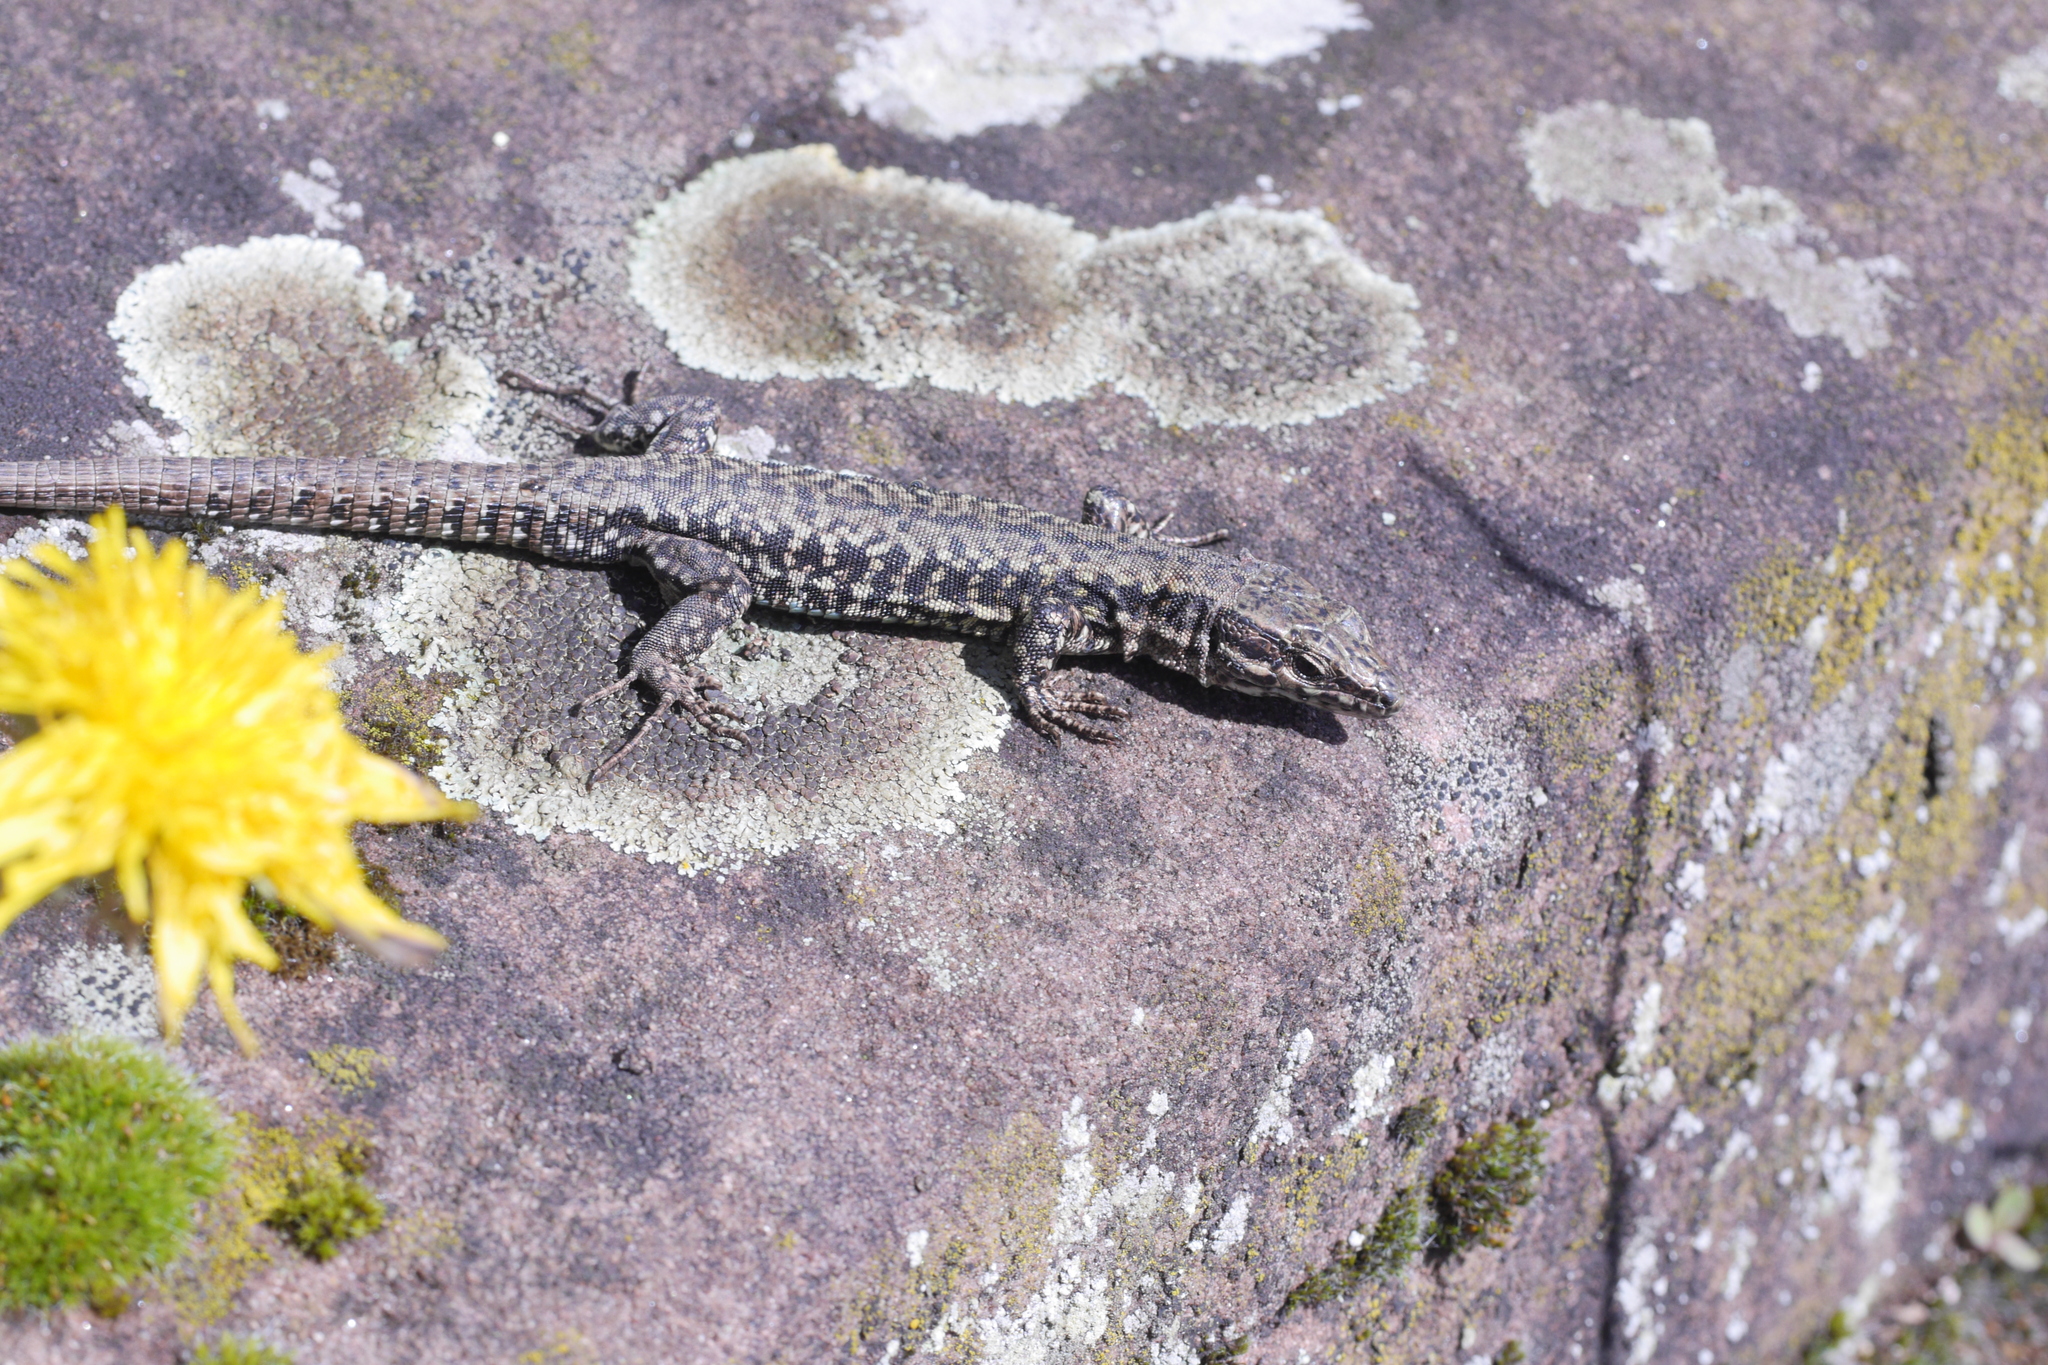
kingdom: Animalia
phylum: Chordata
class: Squamata
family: Lacertidae
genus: Podarcis
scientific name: Podarcis muralis
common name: Common wall lizard
